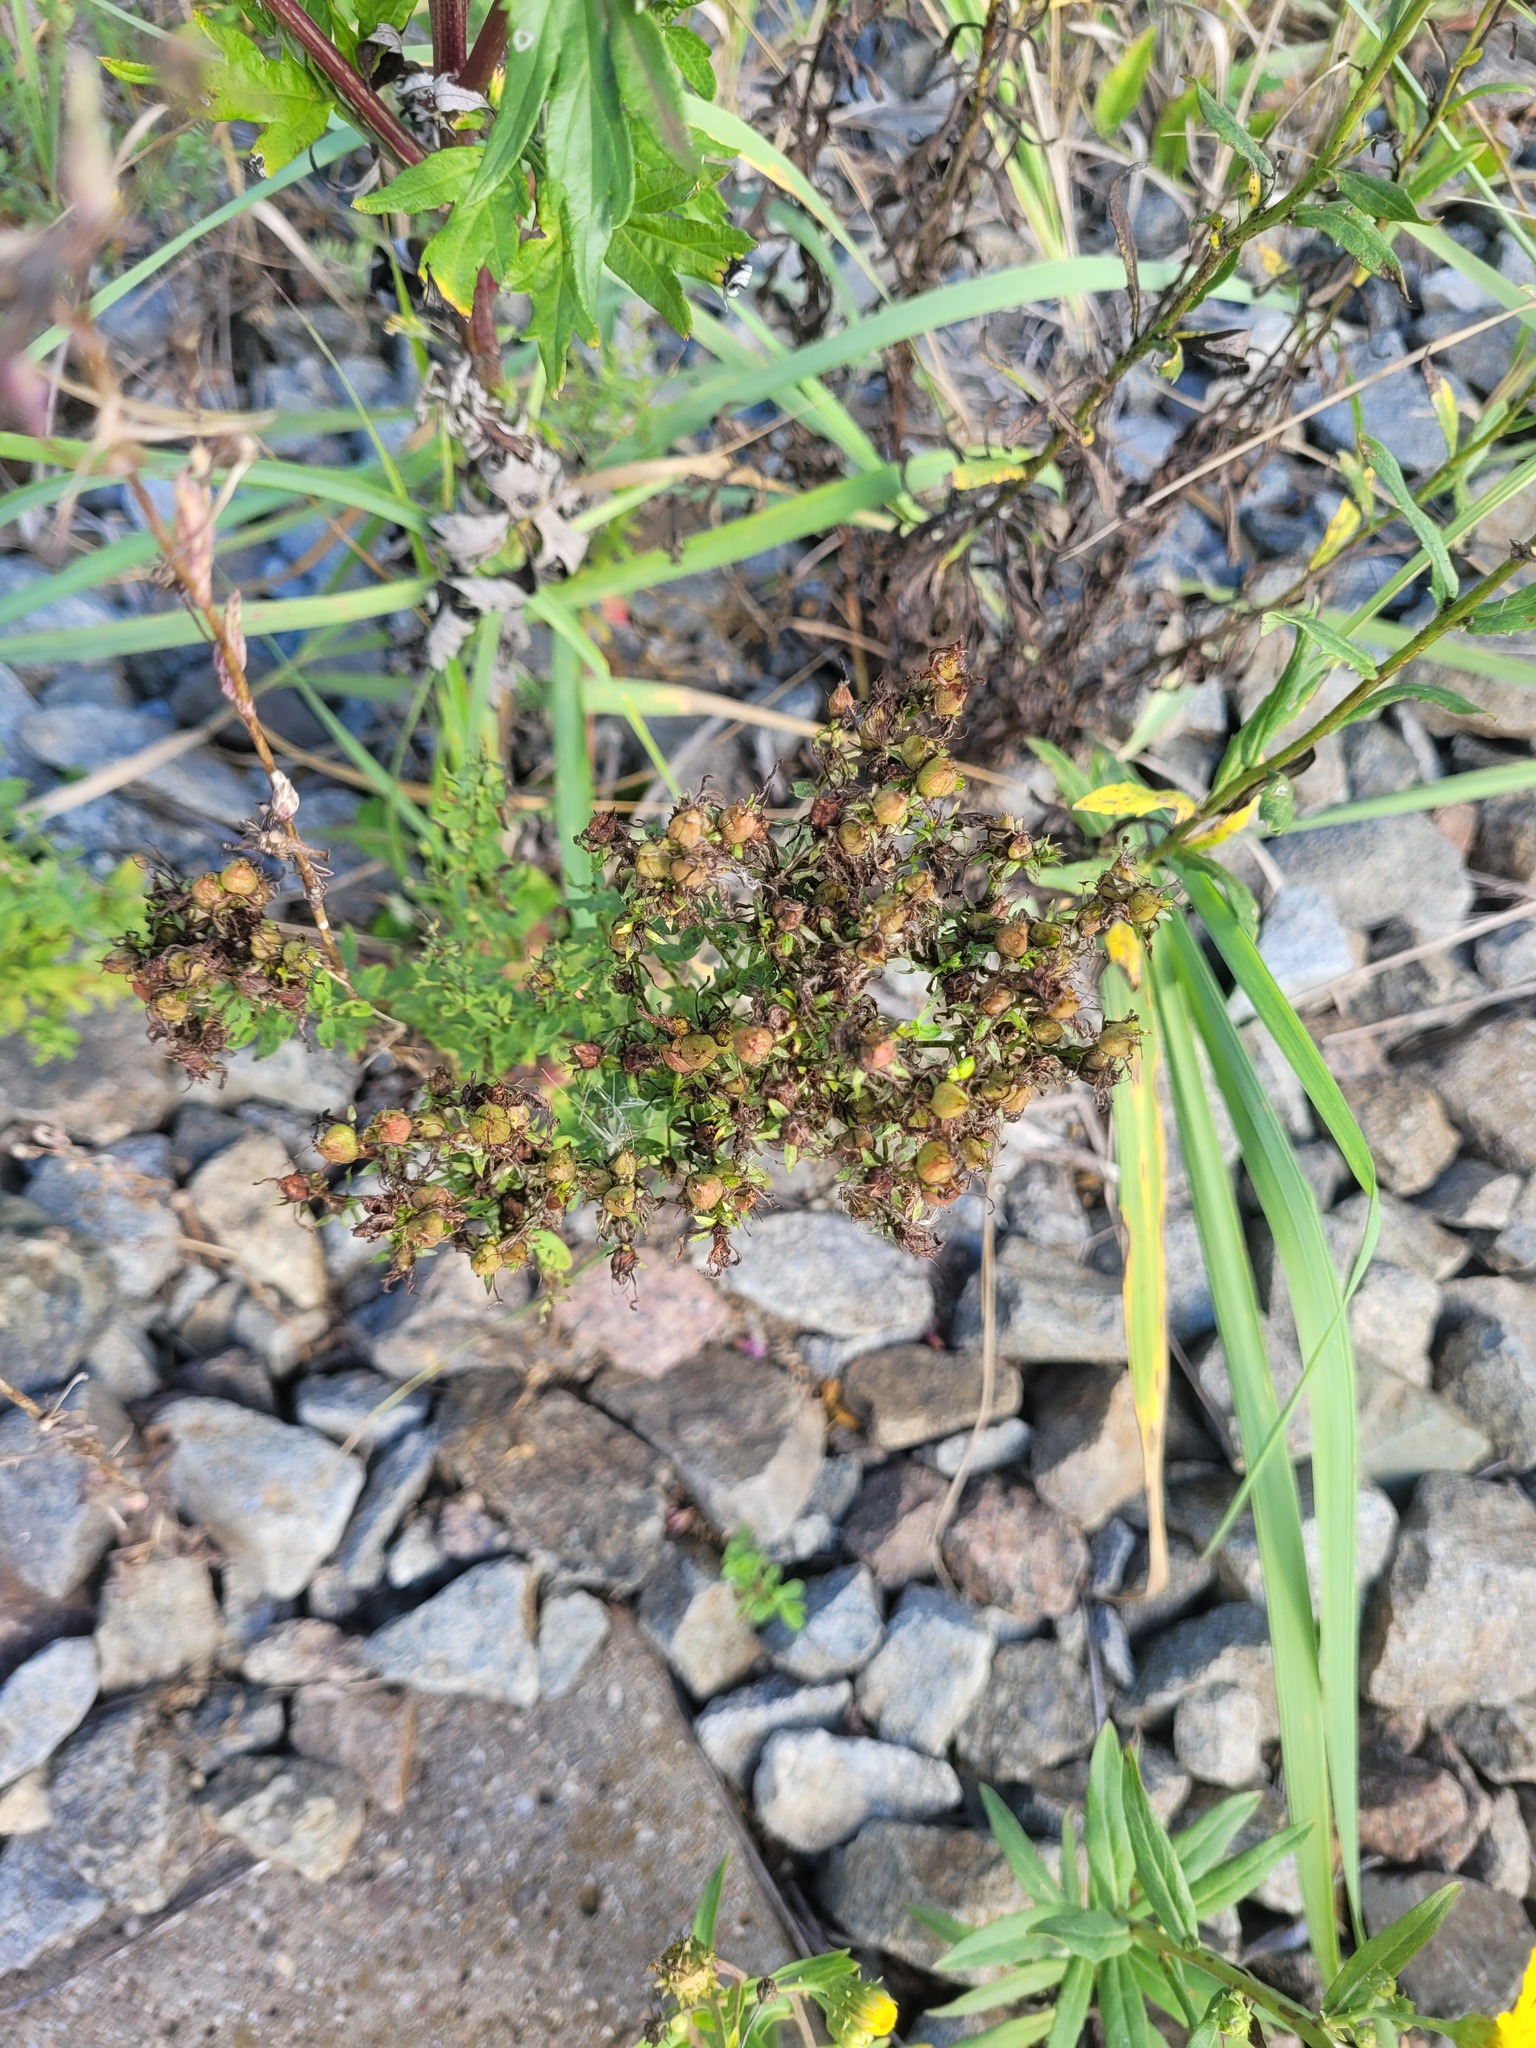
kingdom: Plantae
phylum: Tracheophyta
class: Magnoliopsida
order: Malpighiales
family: Hypericaceae
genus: Hypericum
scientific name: Hypericum perforatum
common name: Common st. johnswort
